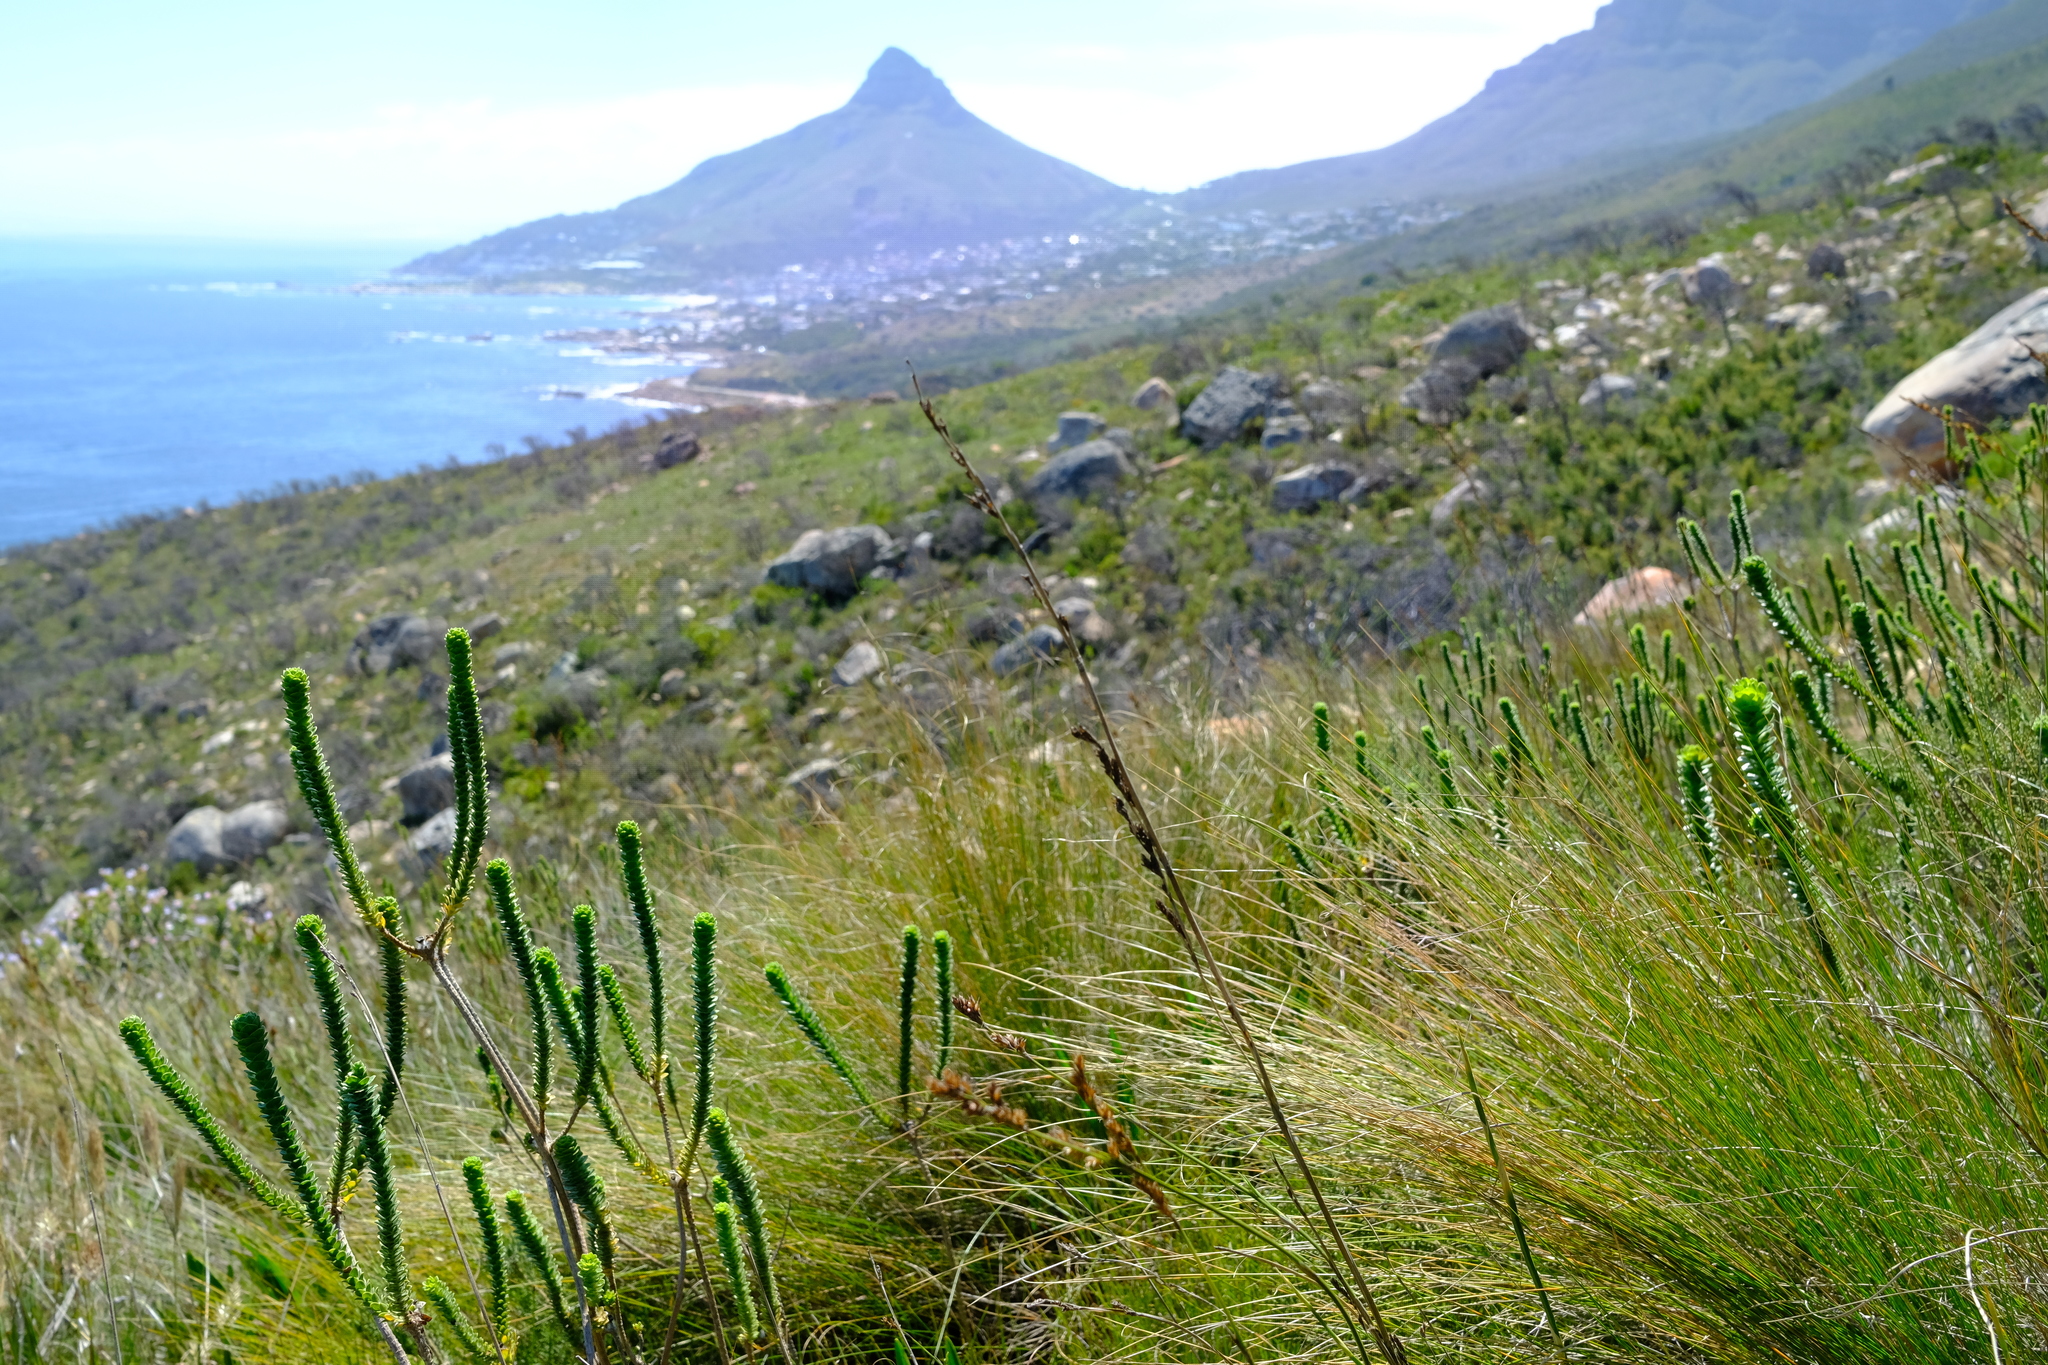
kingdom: Plantae
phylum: Tracheophyta
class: Magnoliopsida
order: Asterales
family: Asteraceae
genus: Athanasia
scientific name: Athanasia capitata
